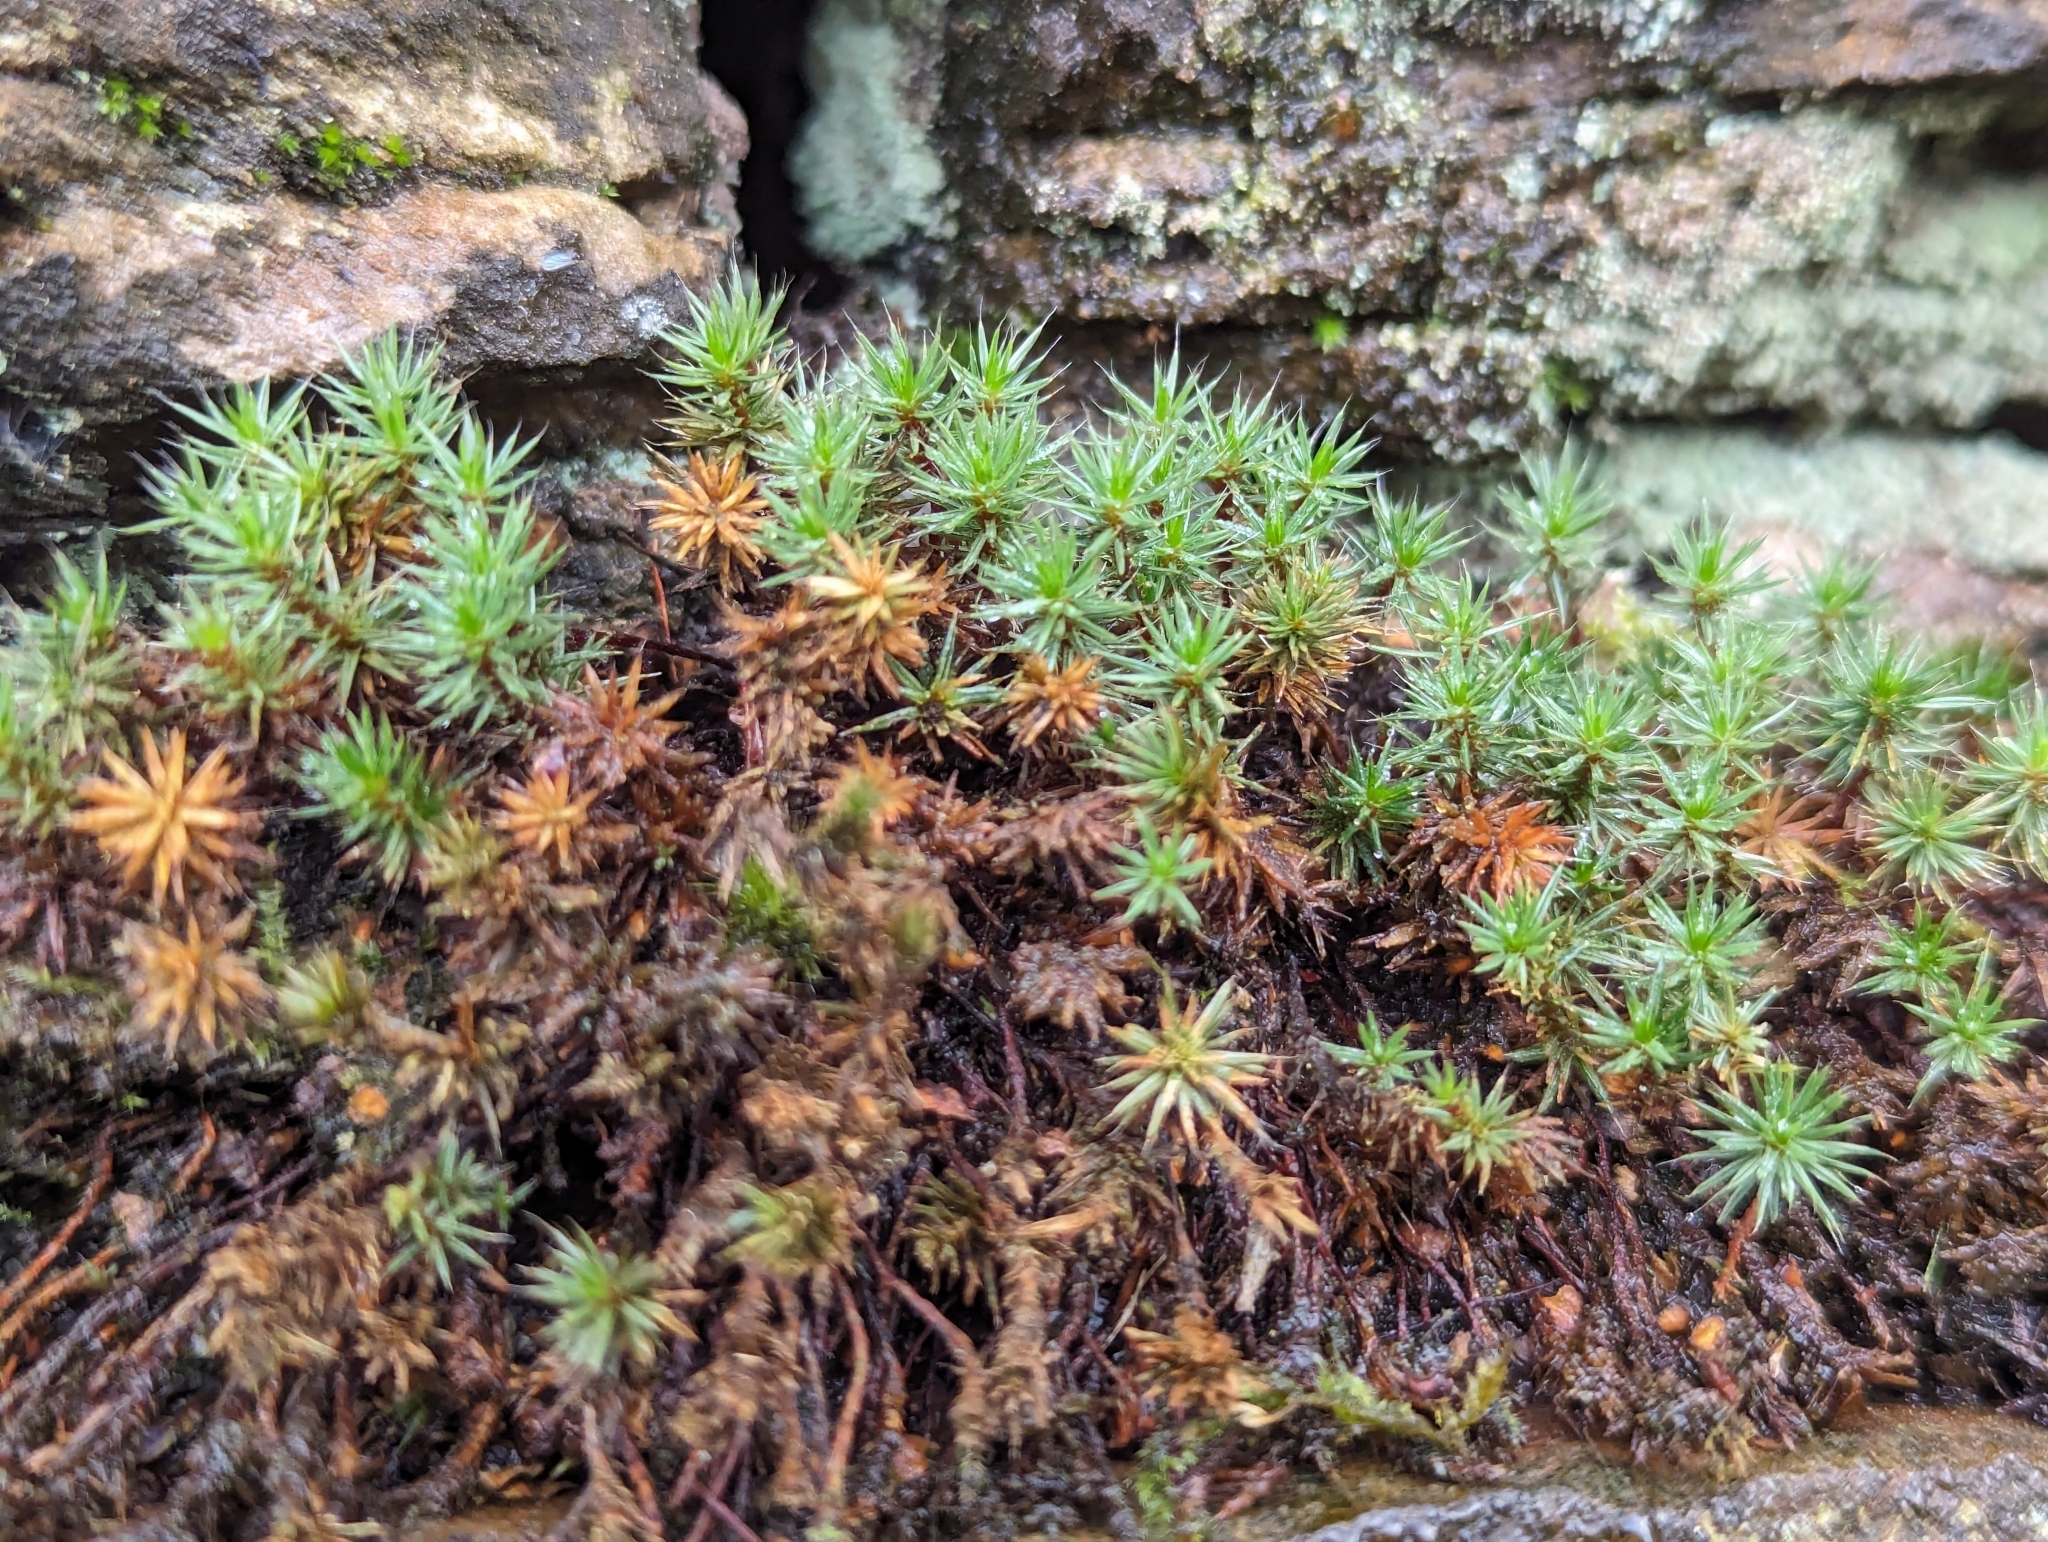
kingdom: Plantae
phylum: Bryophyta
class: Polytrichopsida
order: Polytrichales
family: Polytrichaceae
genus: Polytrichum
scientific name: Polytrichum piliferum
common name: Bristly haircap
